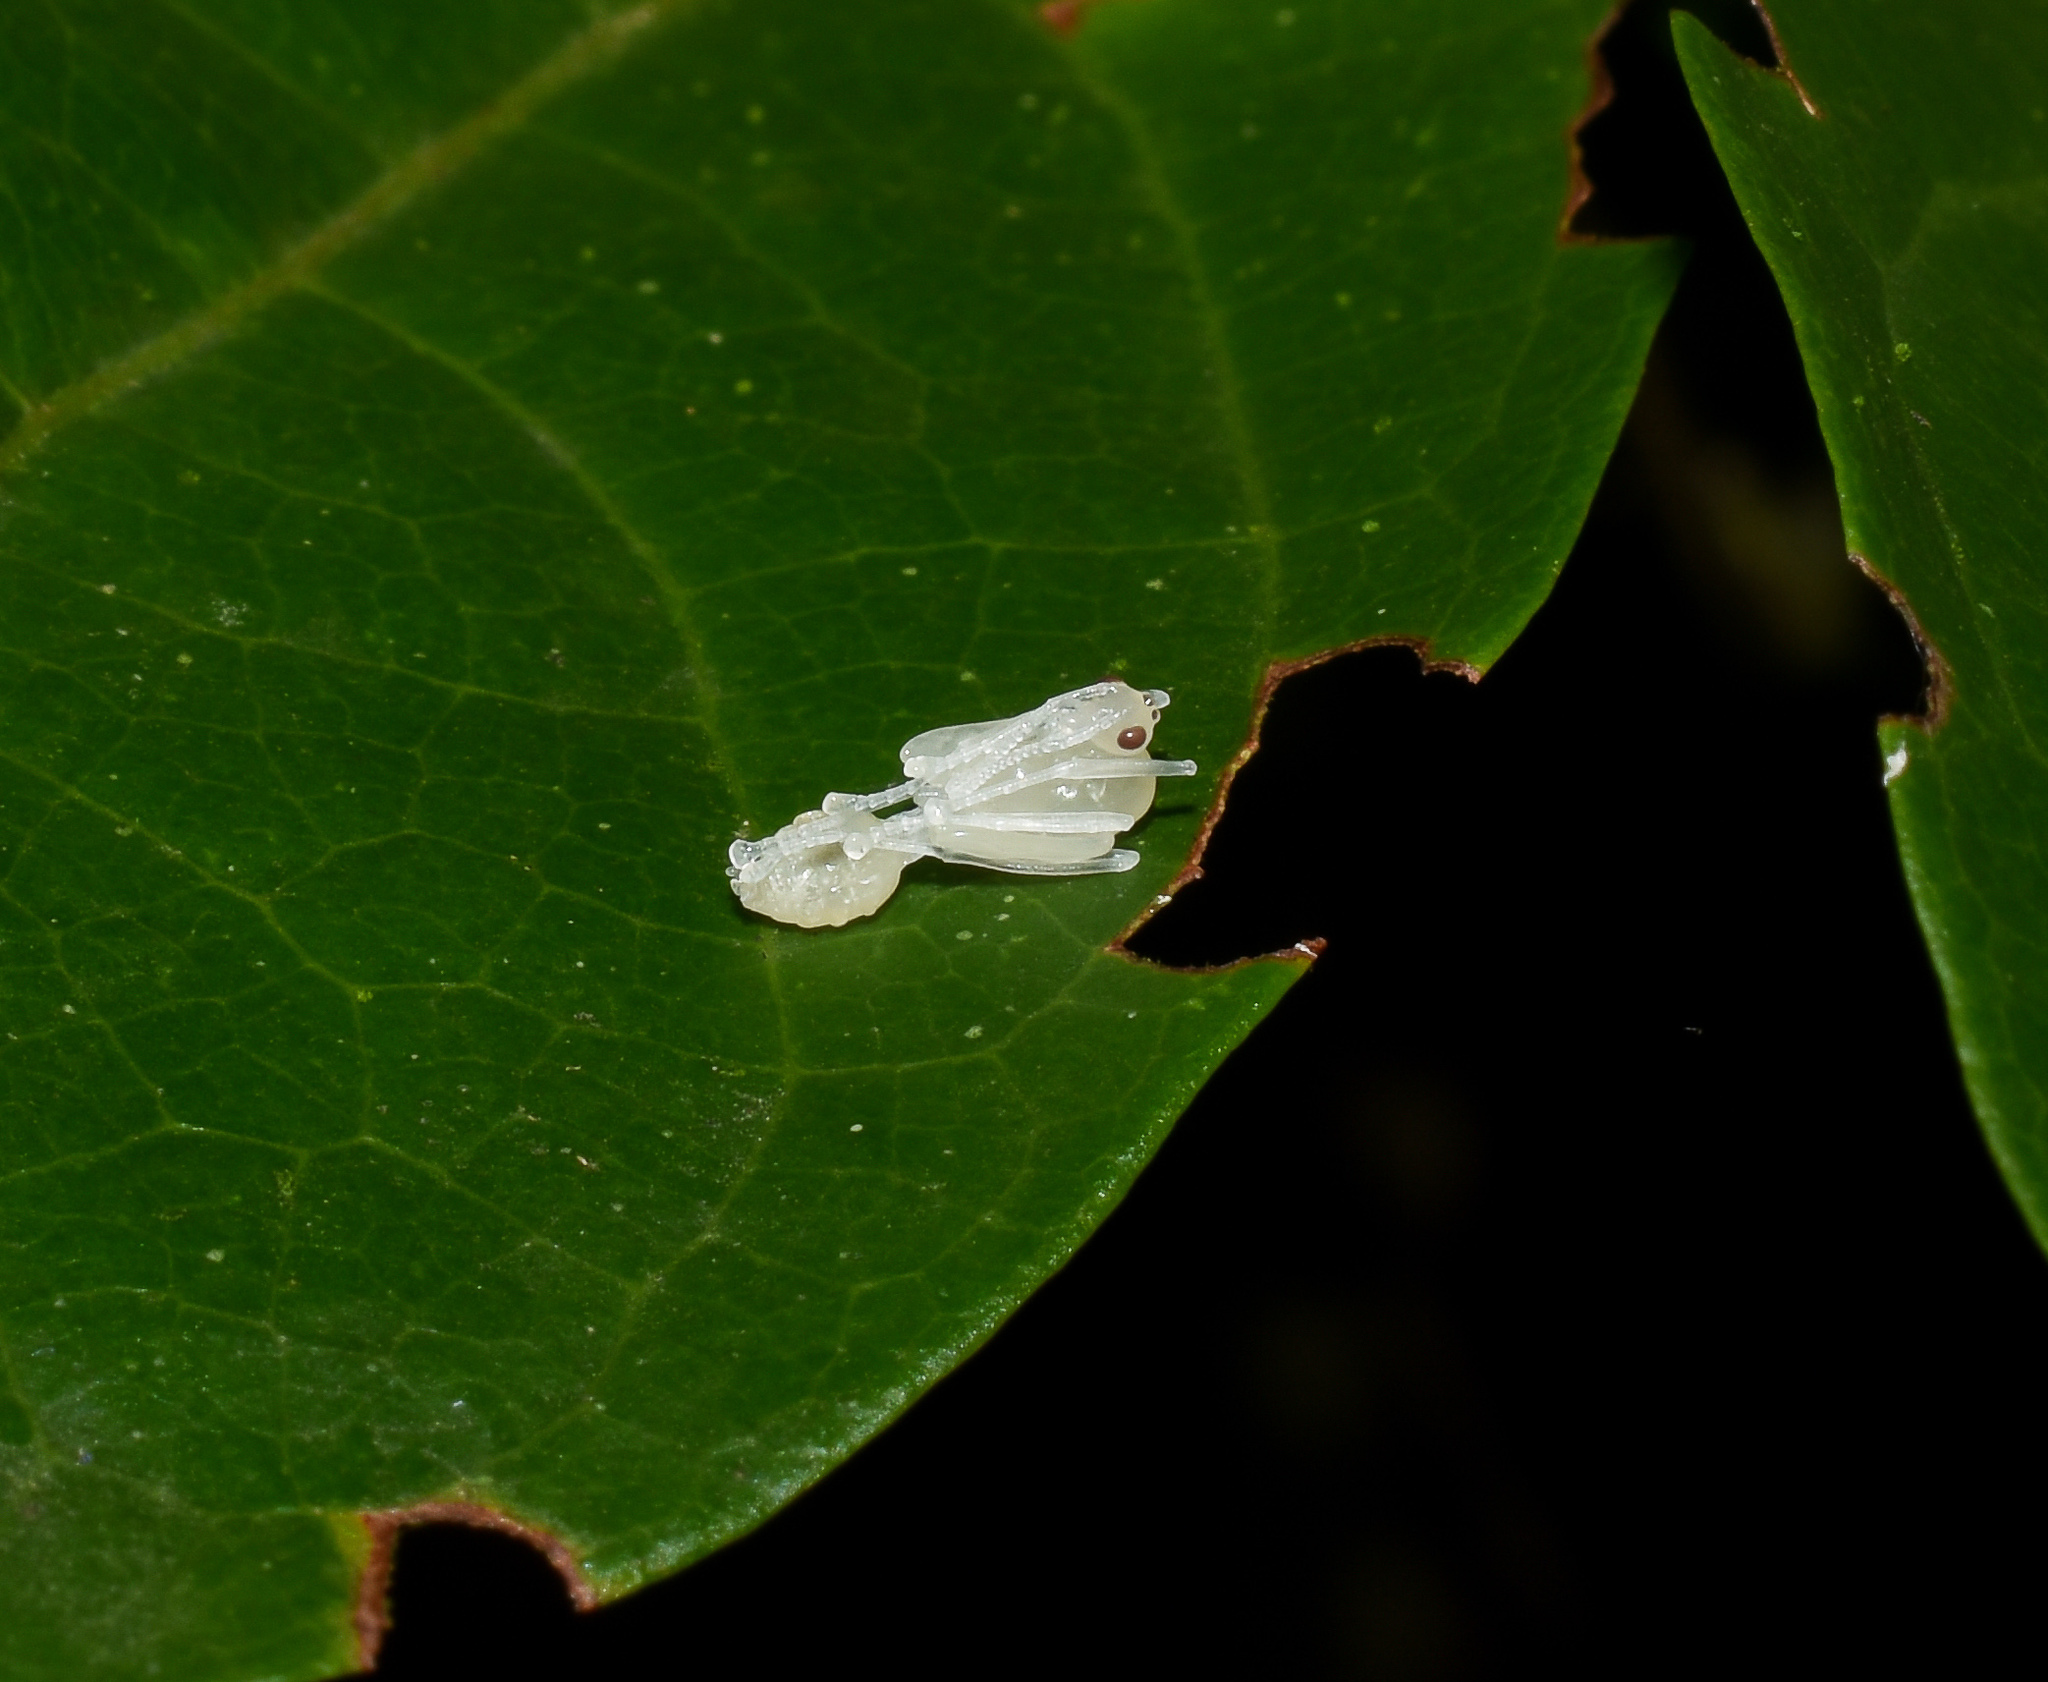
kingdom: Animalia
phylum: Arthropoda
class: Insecta
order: Hymenoptera
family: Formicidae
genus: Oecophylla
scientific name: Oecophylla smaragdina
